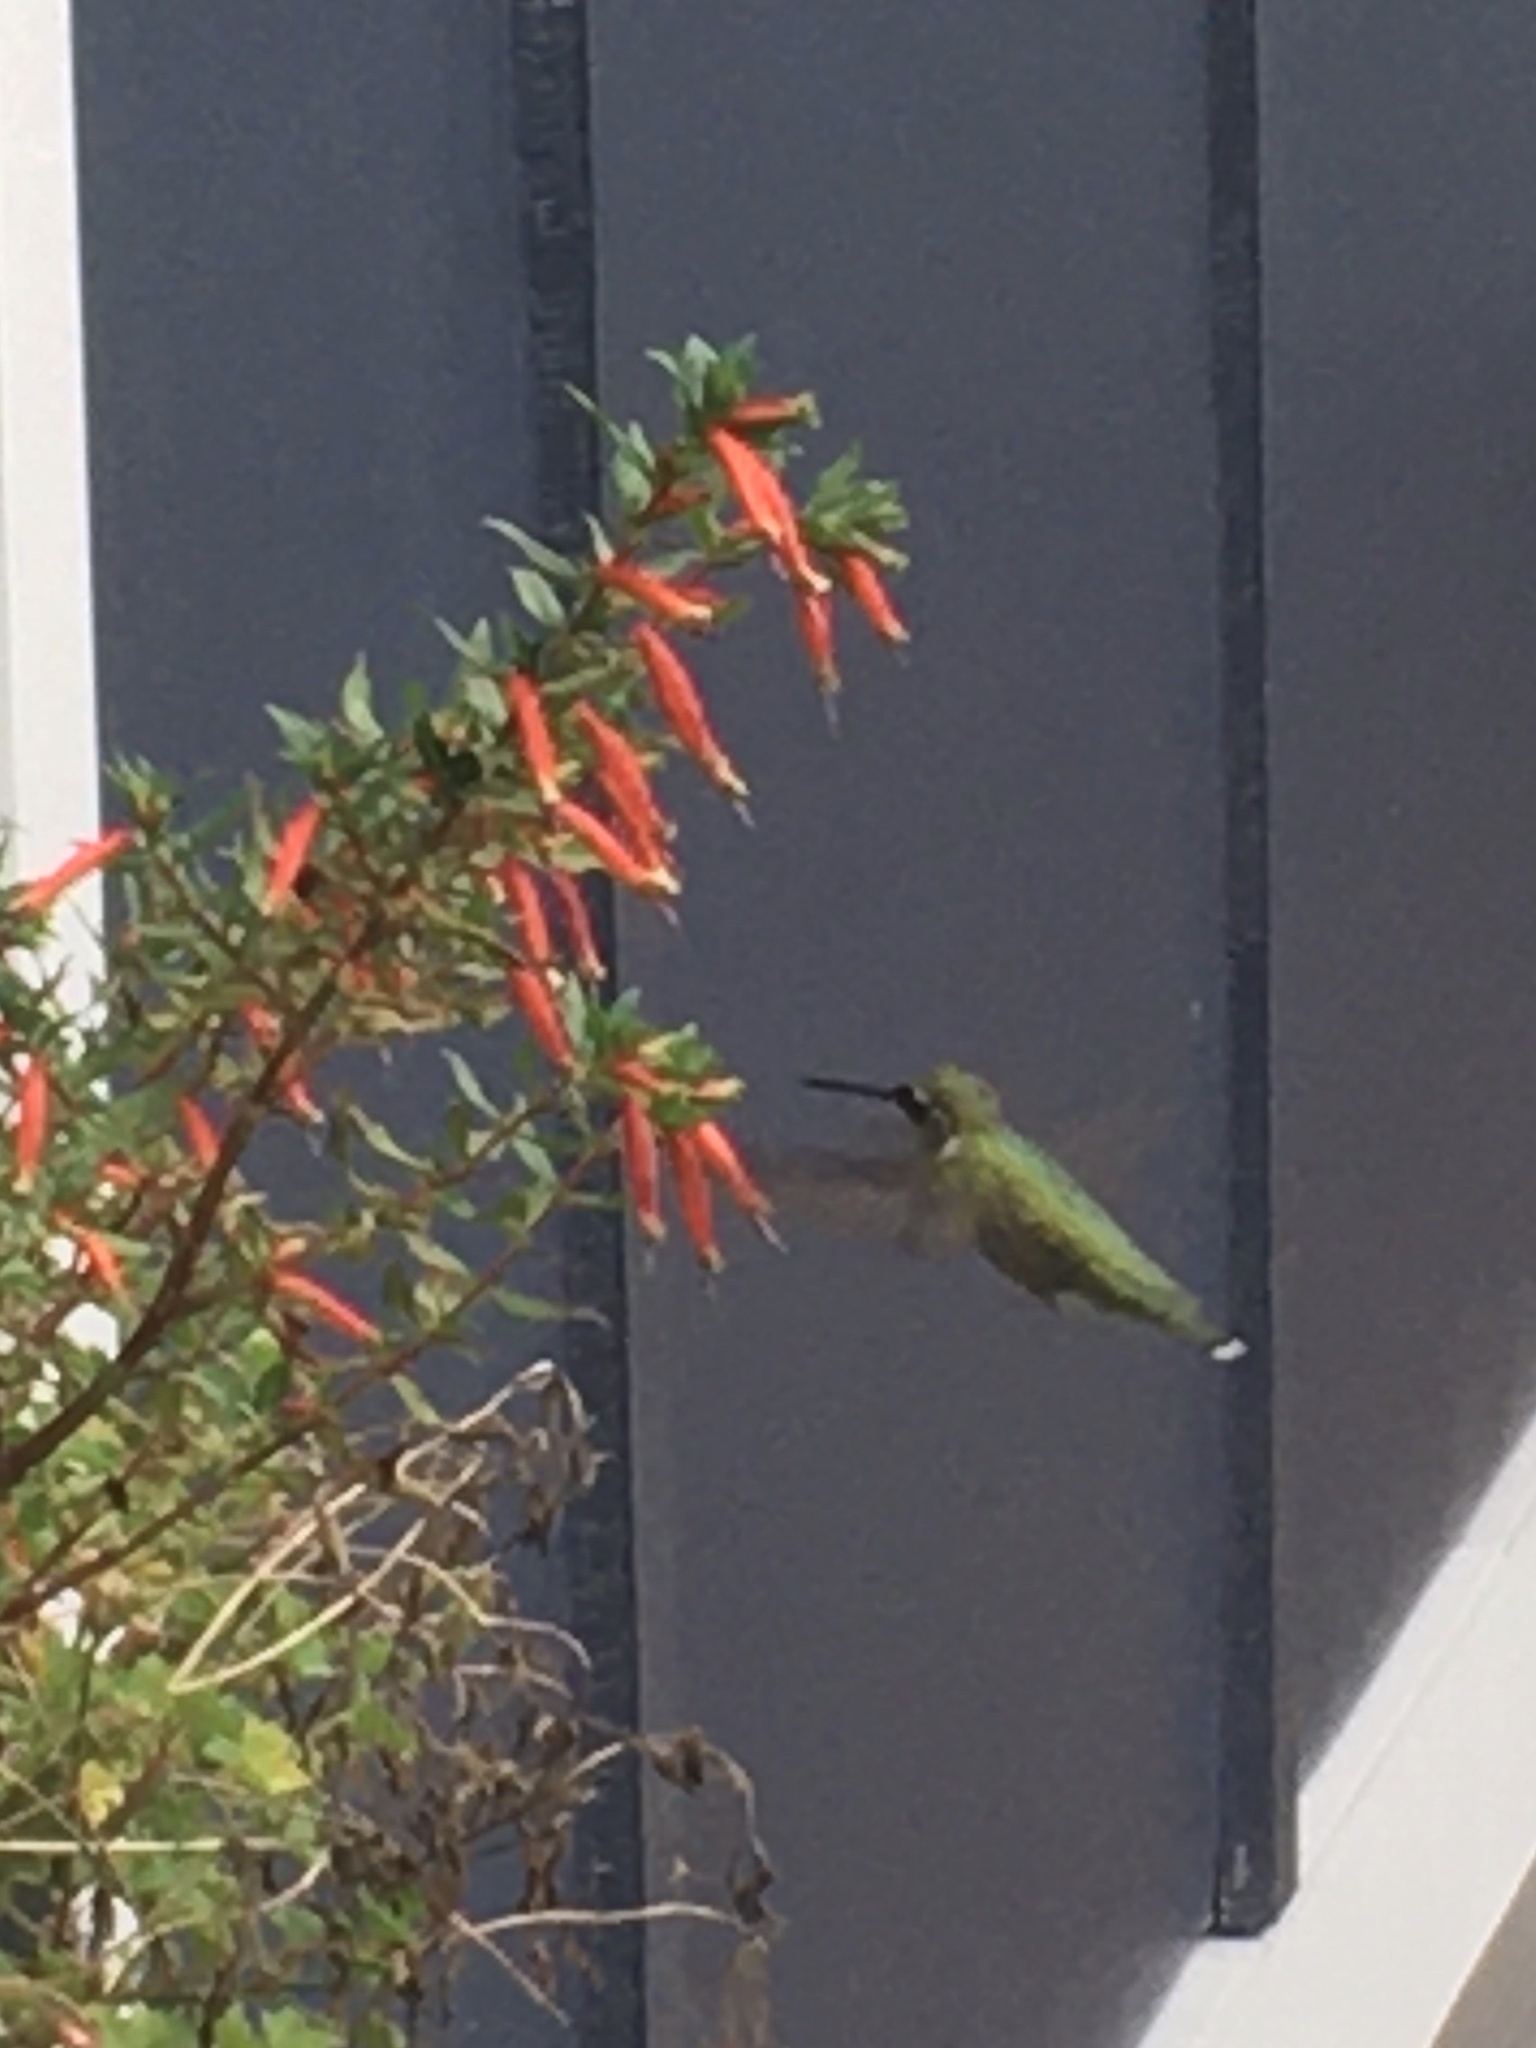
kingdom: Animalia
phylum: Chordata
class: Aves
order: Apodiformes
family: Trochilidae
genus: Archilochus
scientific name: Archilochus colubris
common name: Ruby-throated hummingbird
